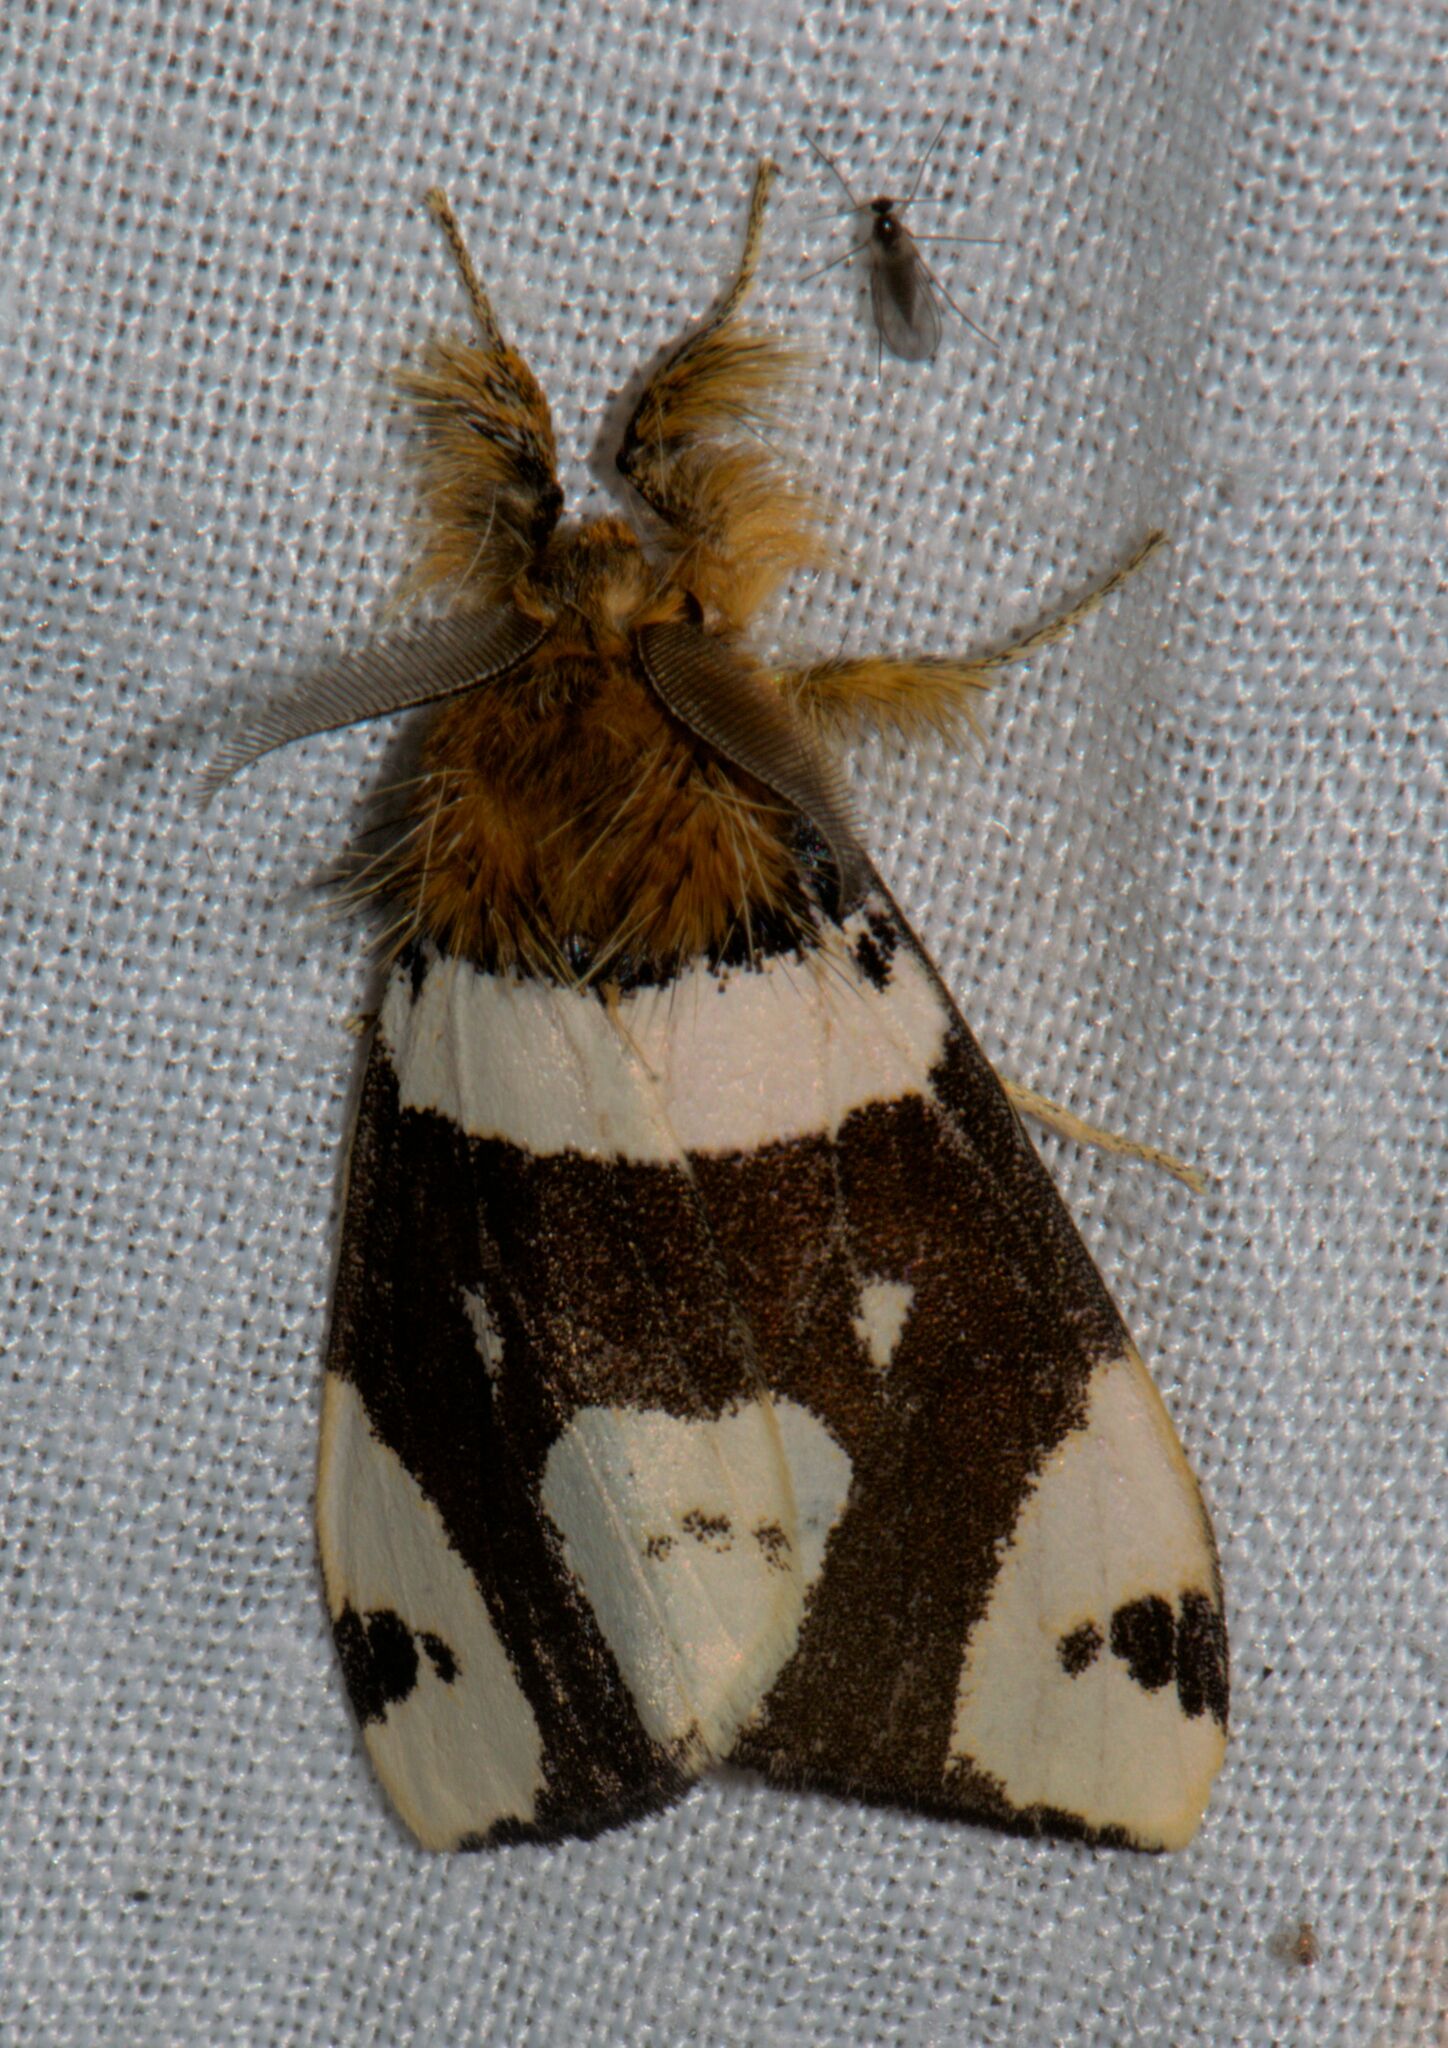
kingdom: Animalia
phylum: Arthropoda
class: Insecta
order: Lepidoptera
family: Erebidae
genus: Pida
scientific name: Pida
